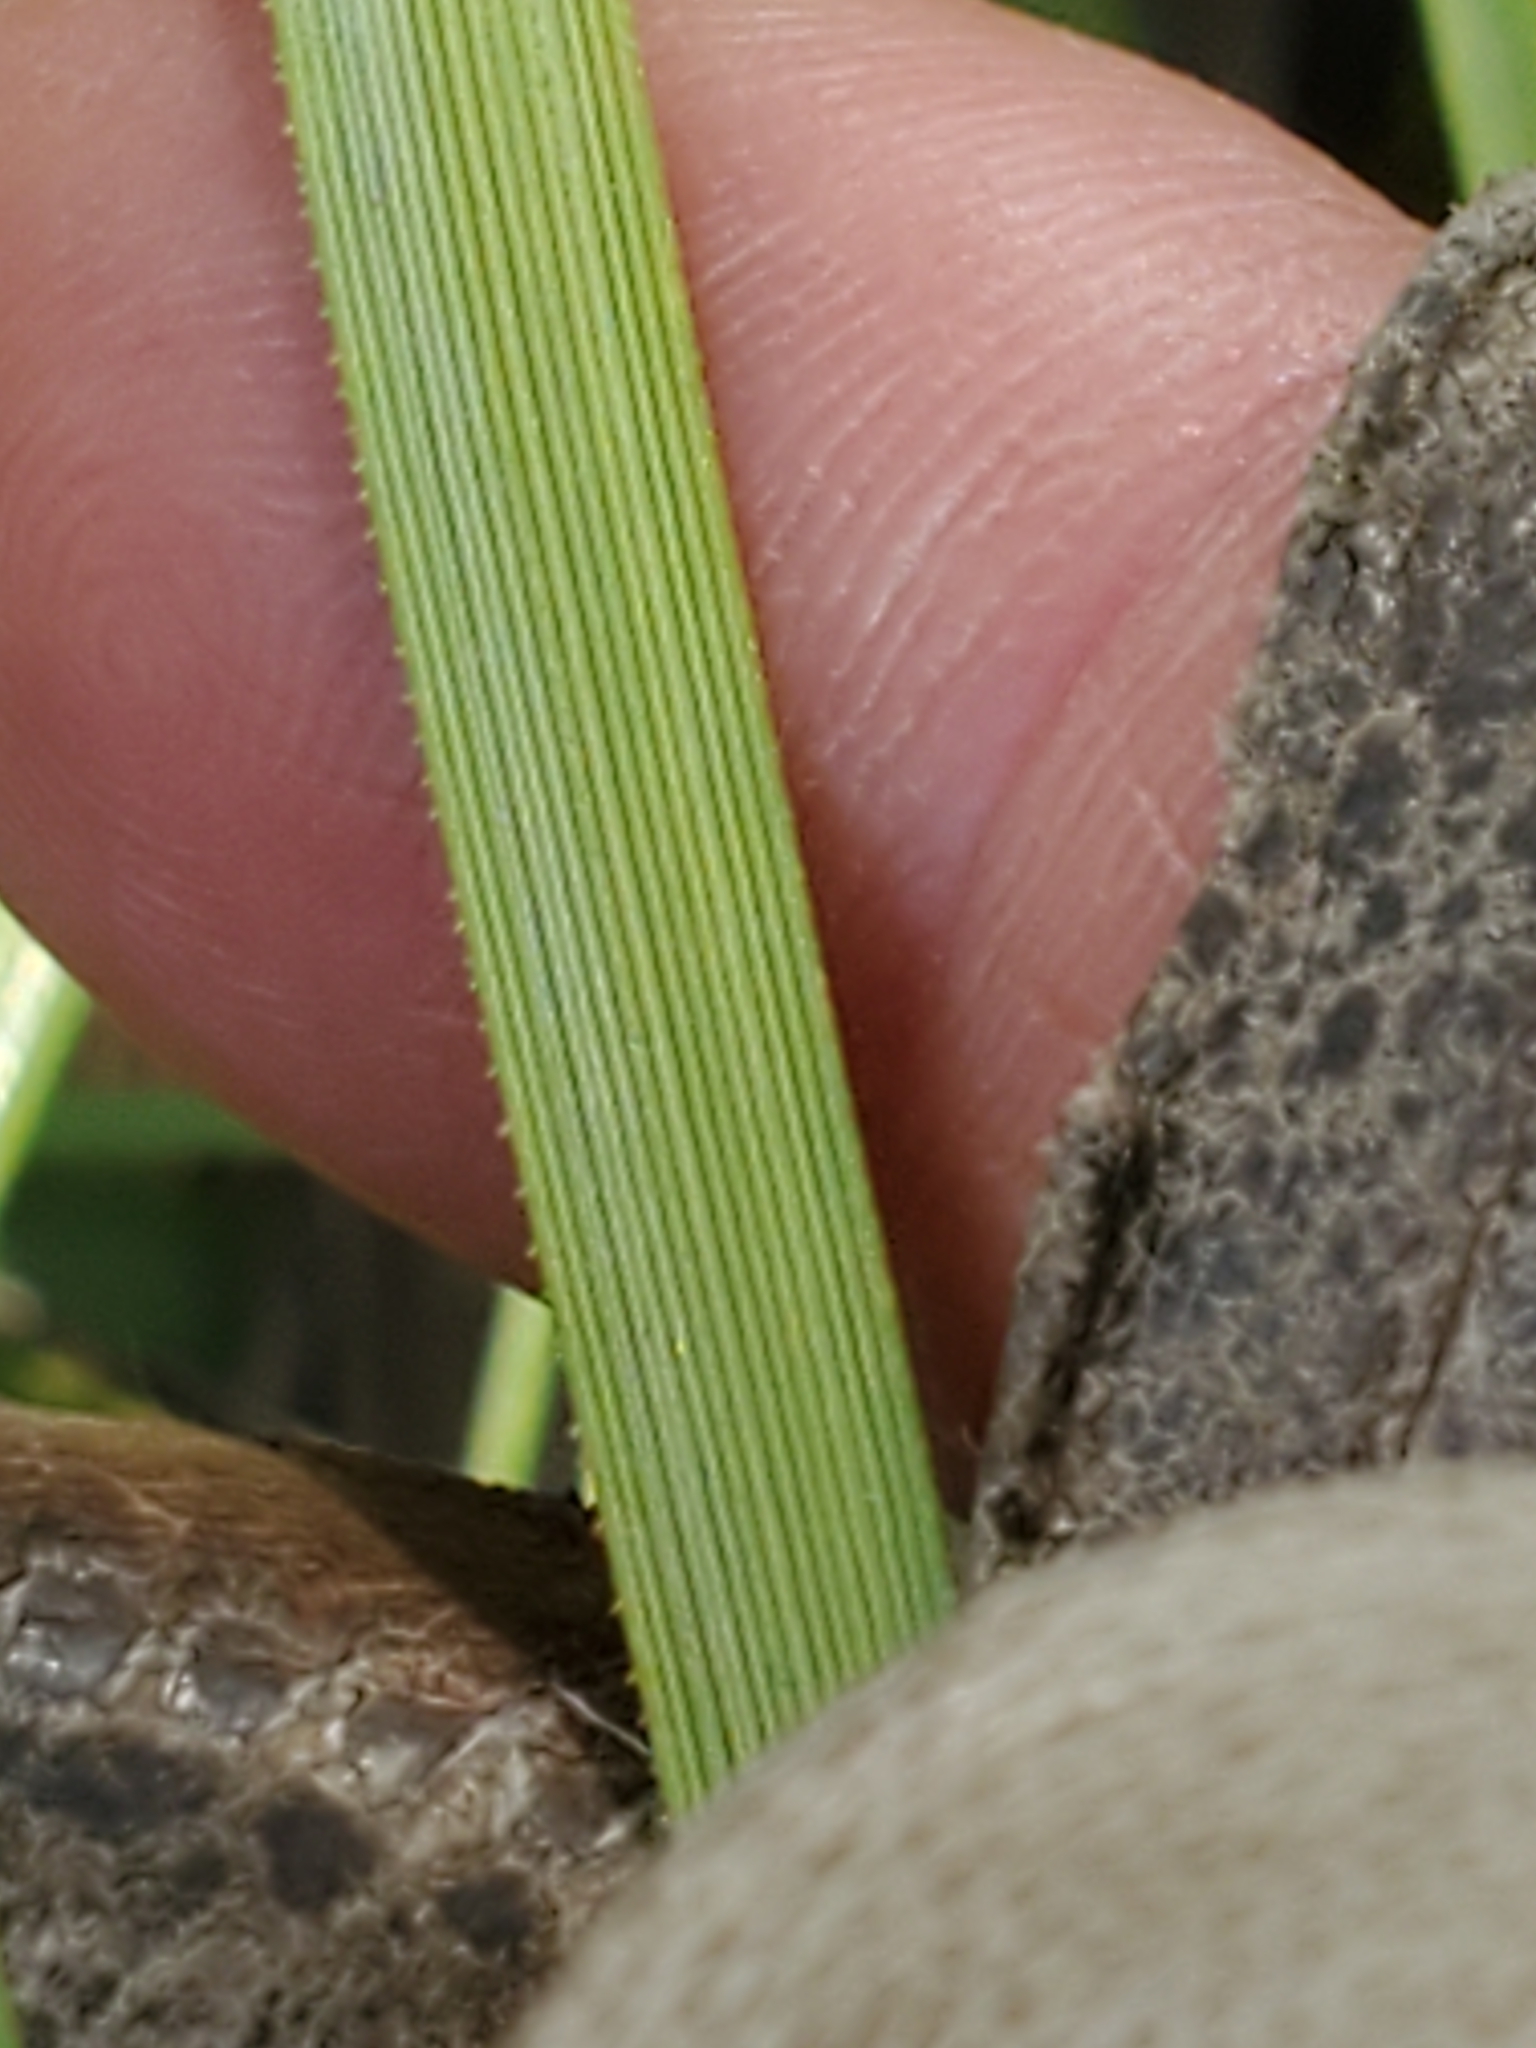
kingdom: Plantae
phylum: Tracheophyta
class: Liliopsida
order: Asparagales
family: Asparagaceae
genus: Nolina
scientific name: Nolina lindheimeriana
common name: Lindheimer's bear-grass
